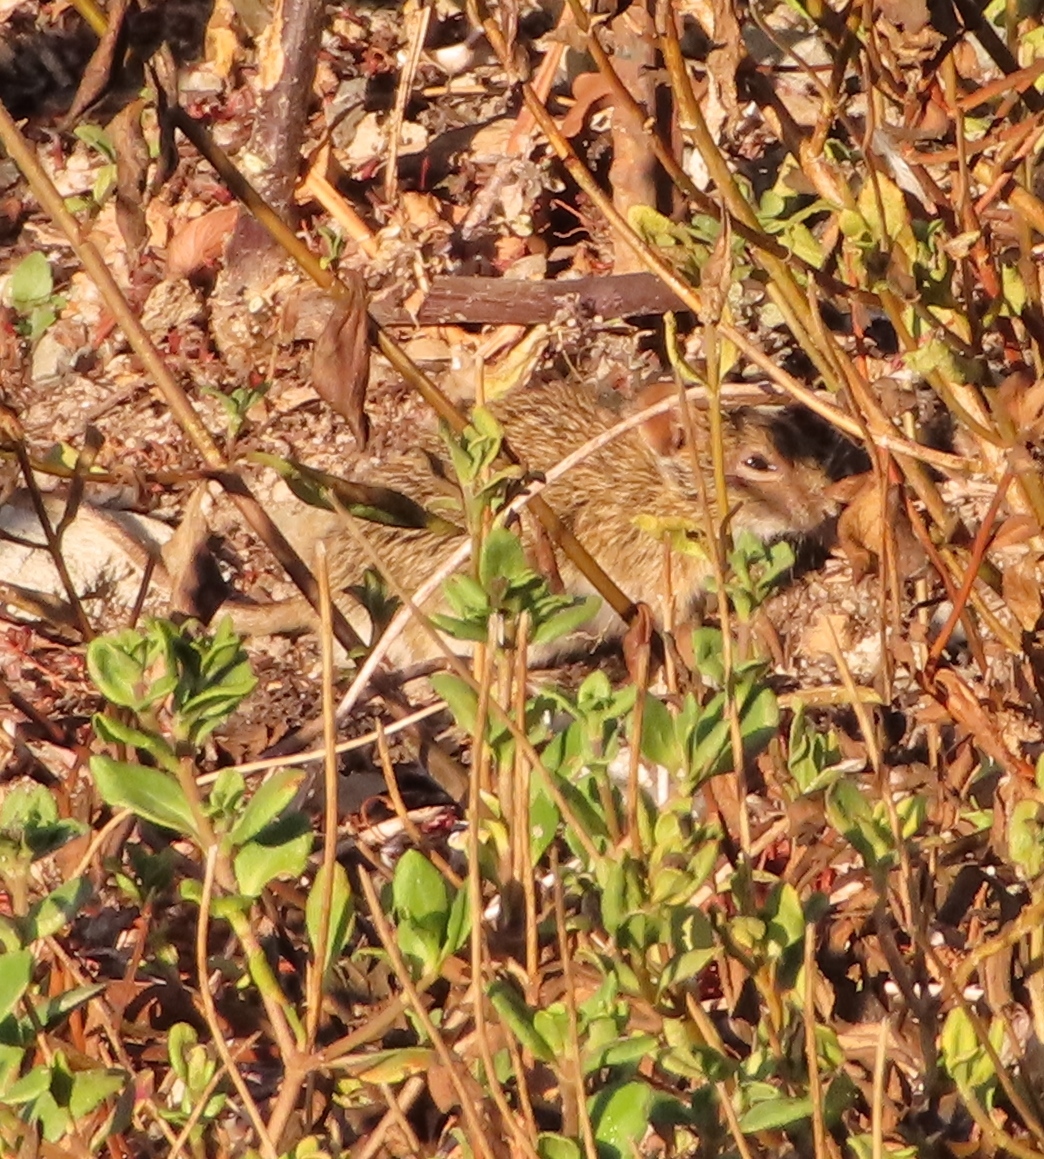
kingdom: Animalia
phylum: Chordata
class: Mammalia
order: Rodentia
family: Muridae
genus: Rhabdomys
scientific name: Rhabdomys pumilio
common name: Xeric four-striped grass rat
